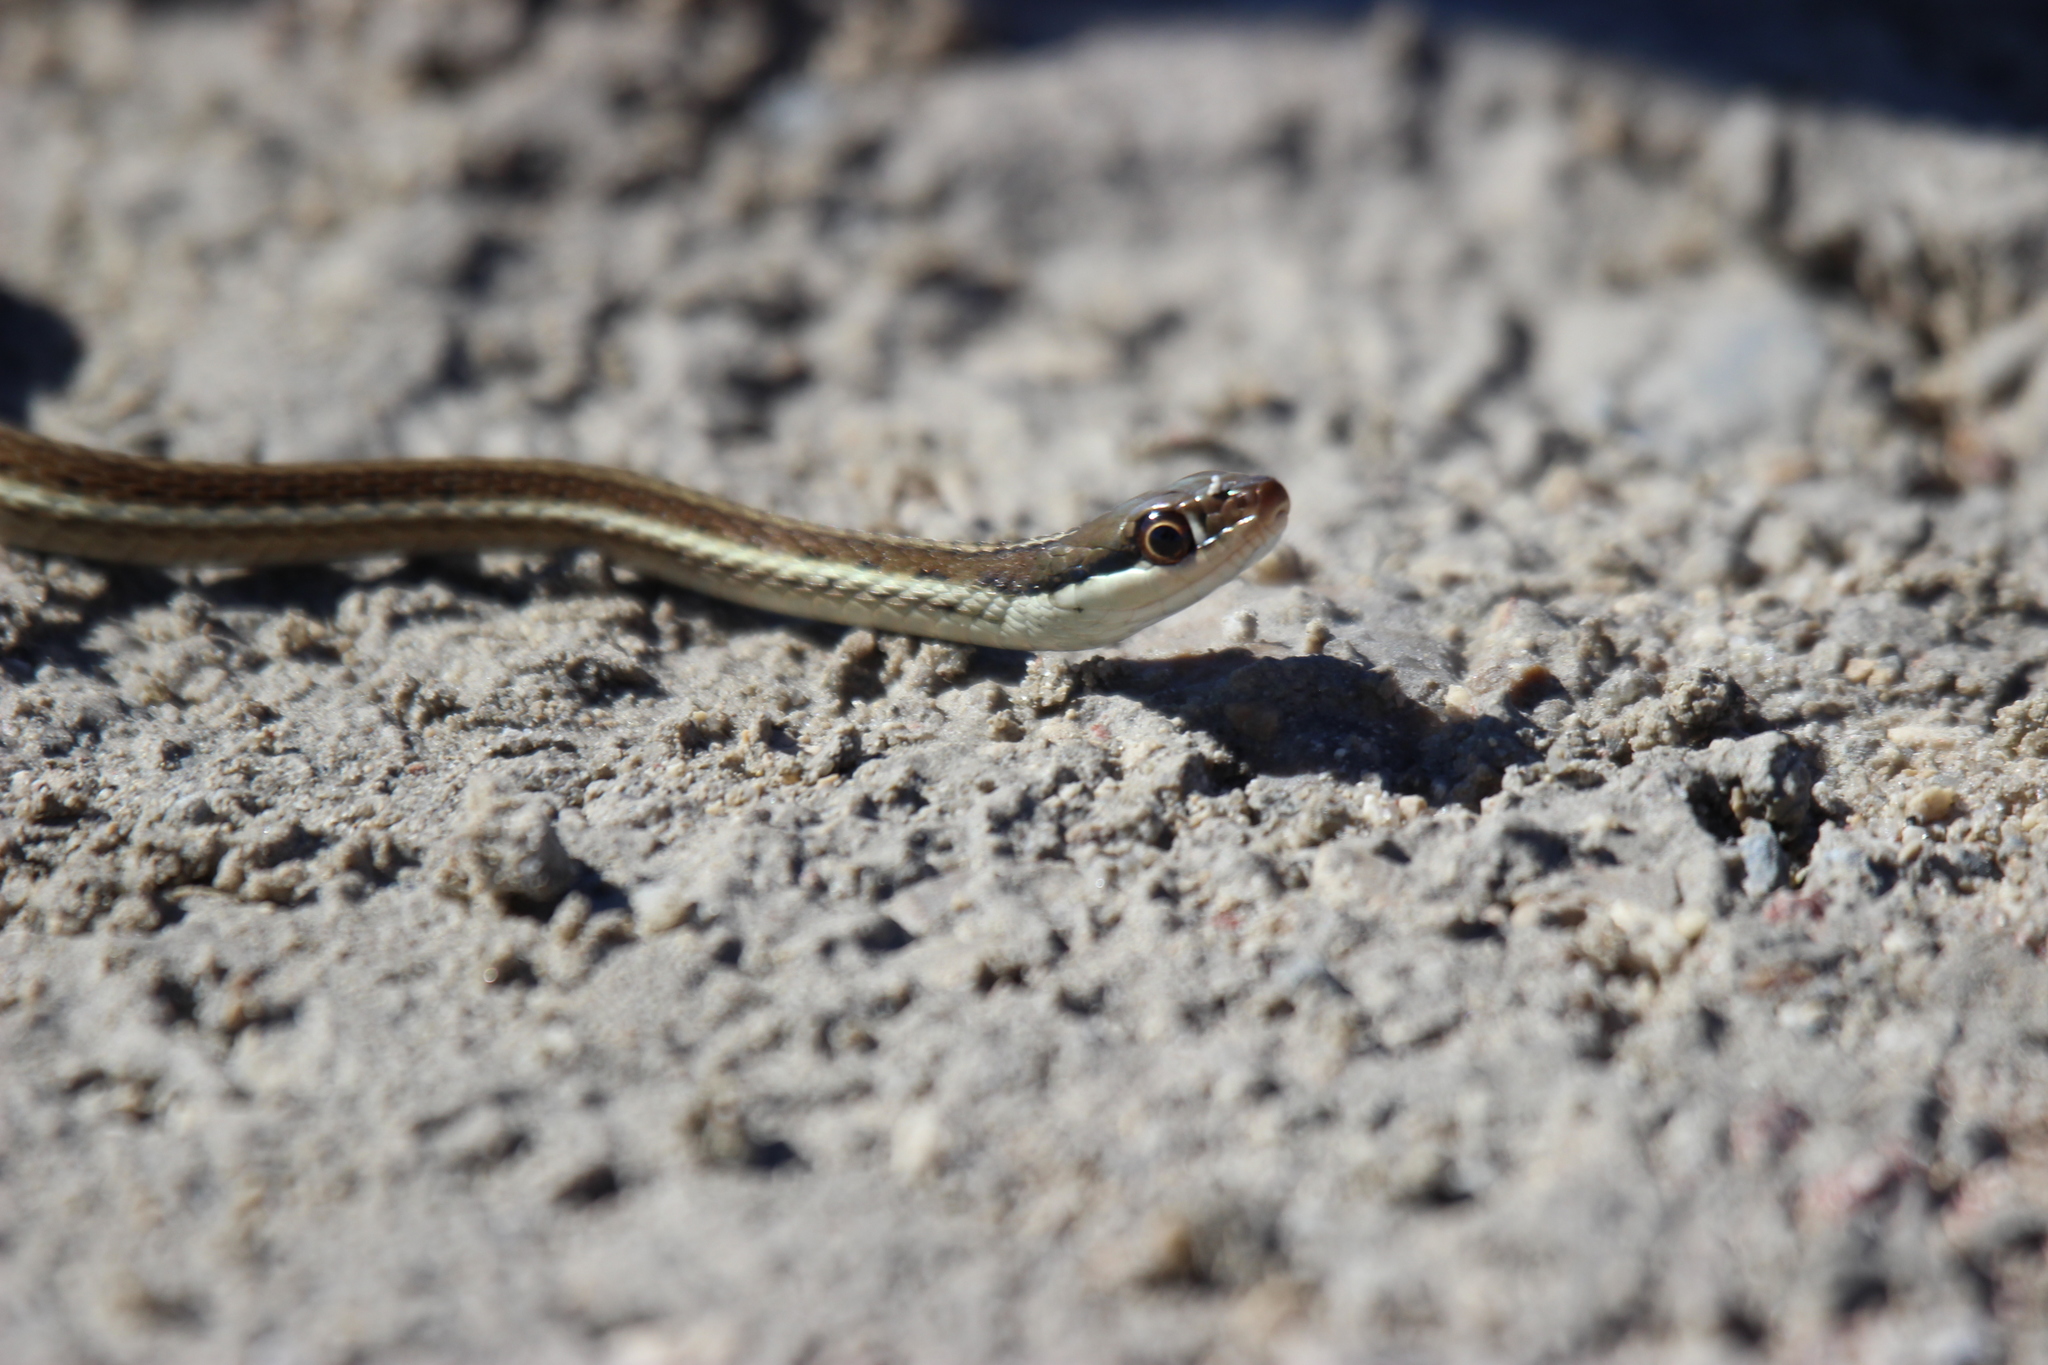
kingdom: Animalia
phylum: Chordata
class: Squamata
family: Colubridae
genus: Thamnophis
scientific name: Thamnophis saurita
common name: Eastern ribbonsnake
